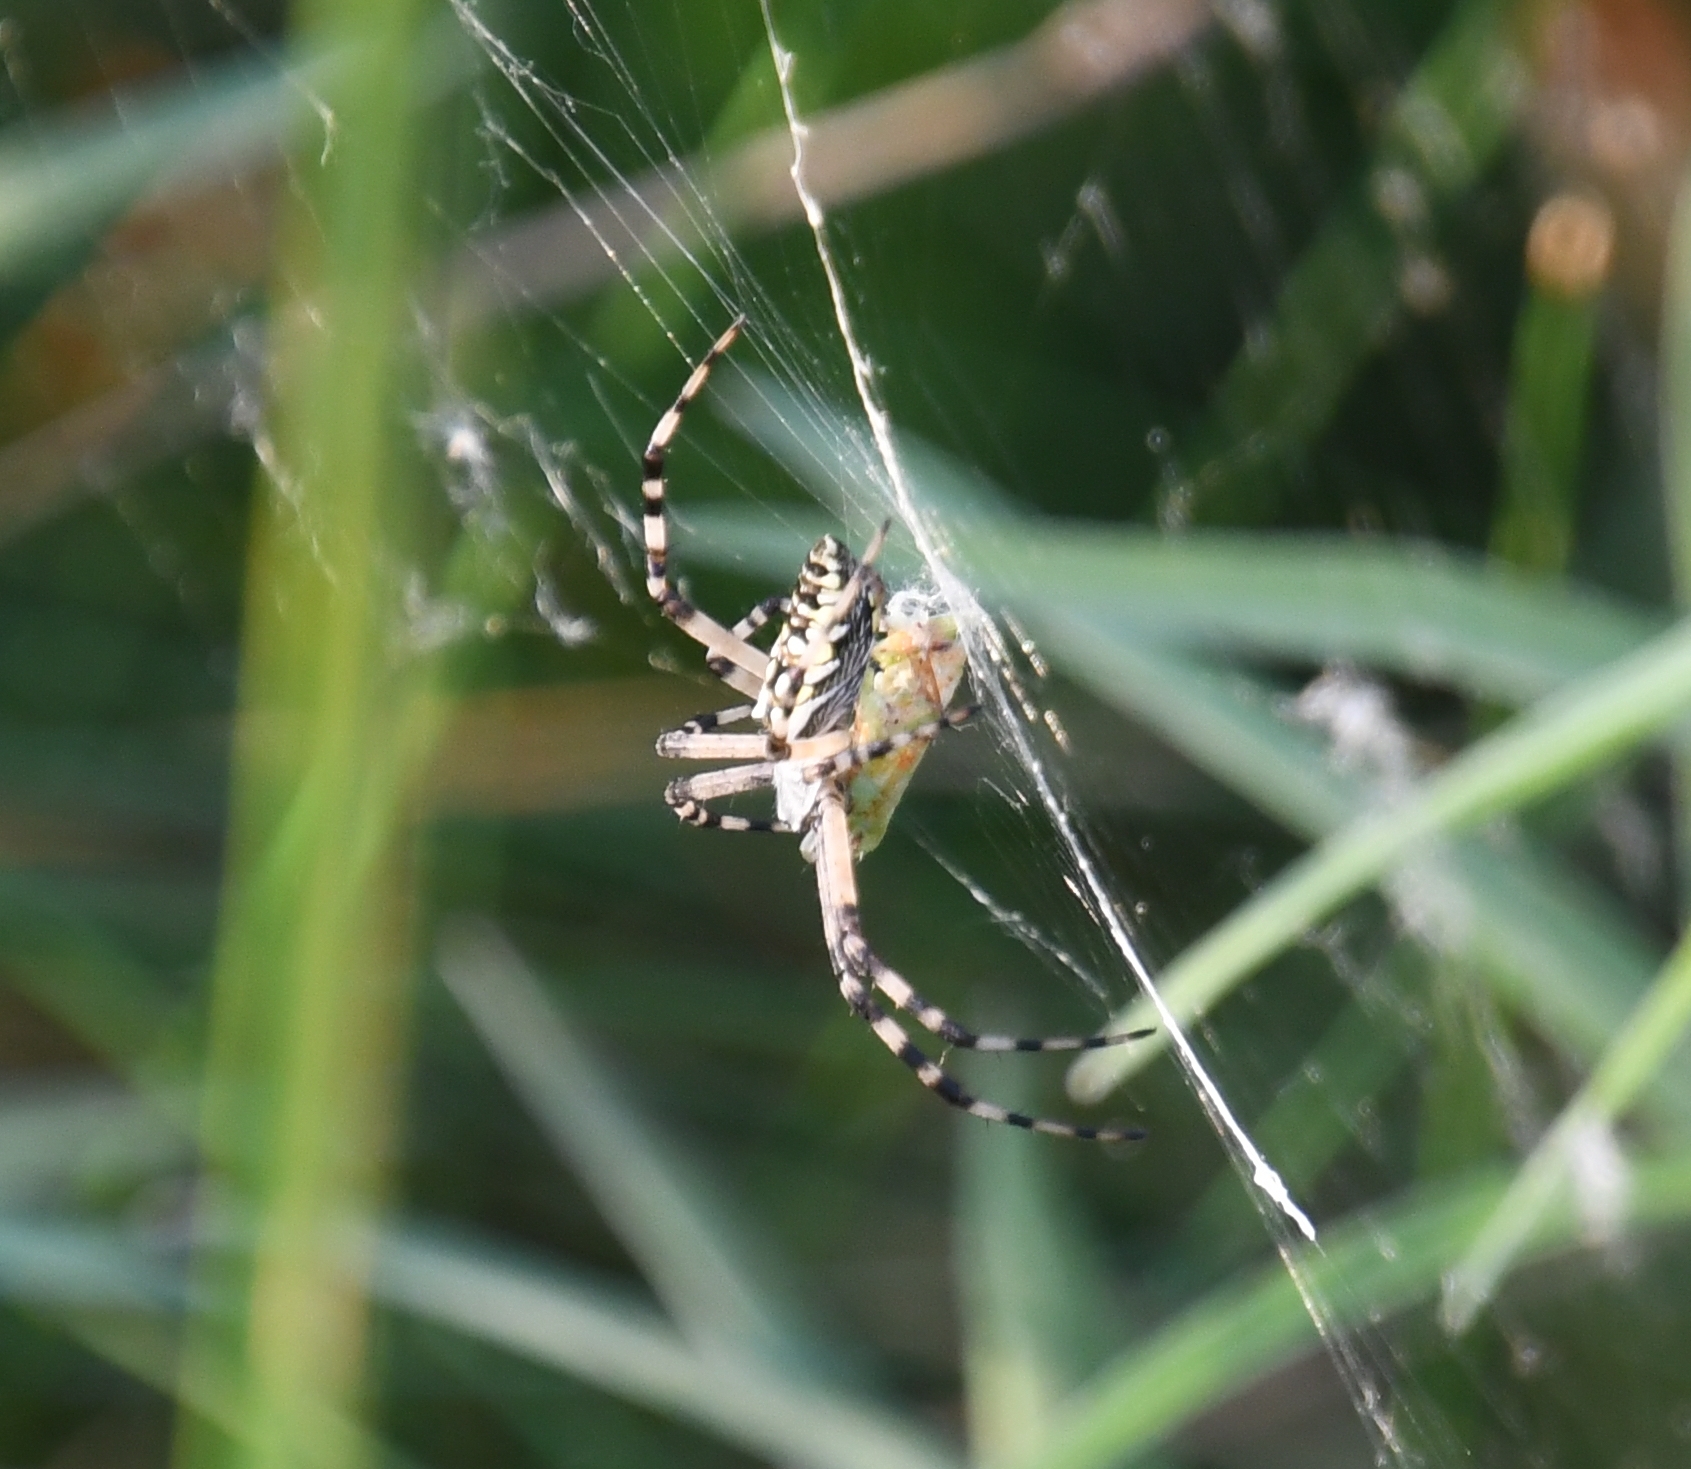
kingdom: Animalia
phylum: Arthropoda
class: Arachnida
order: Araneae
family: Araneidae
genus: Argiope
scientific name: Argiope aurantia
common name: Orb weavers
